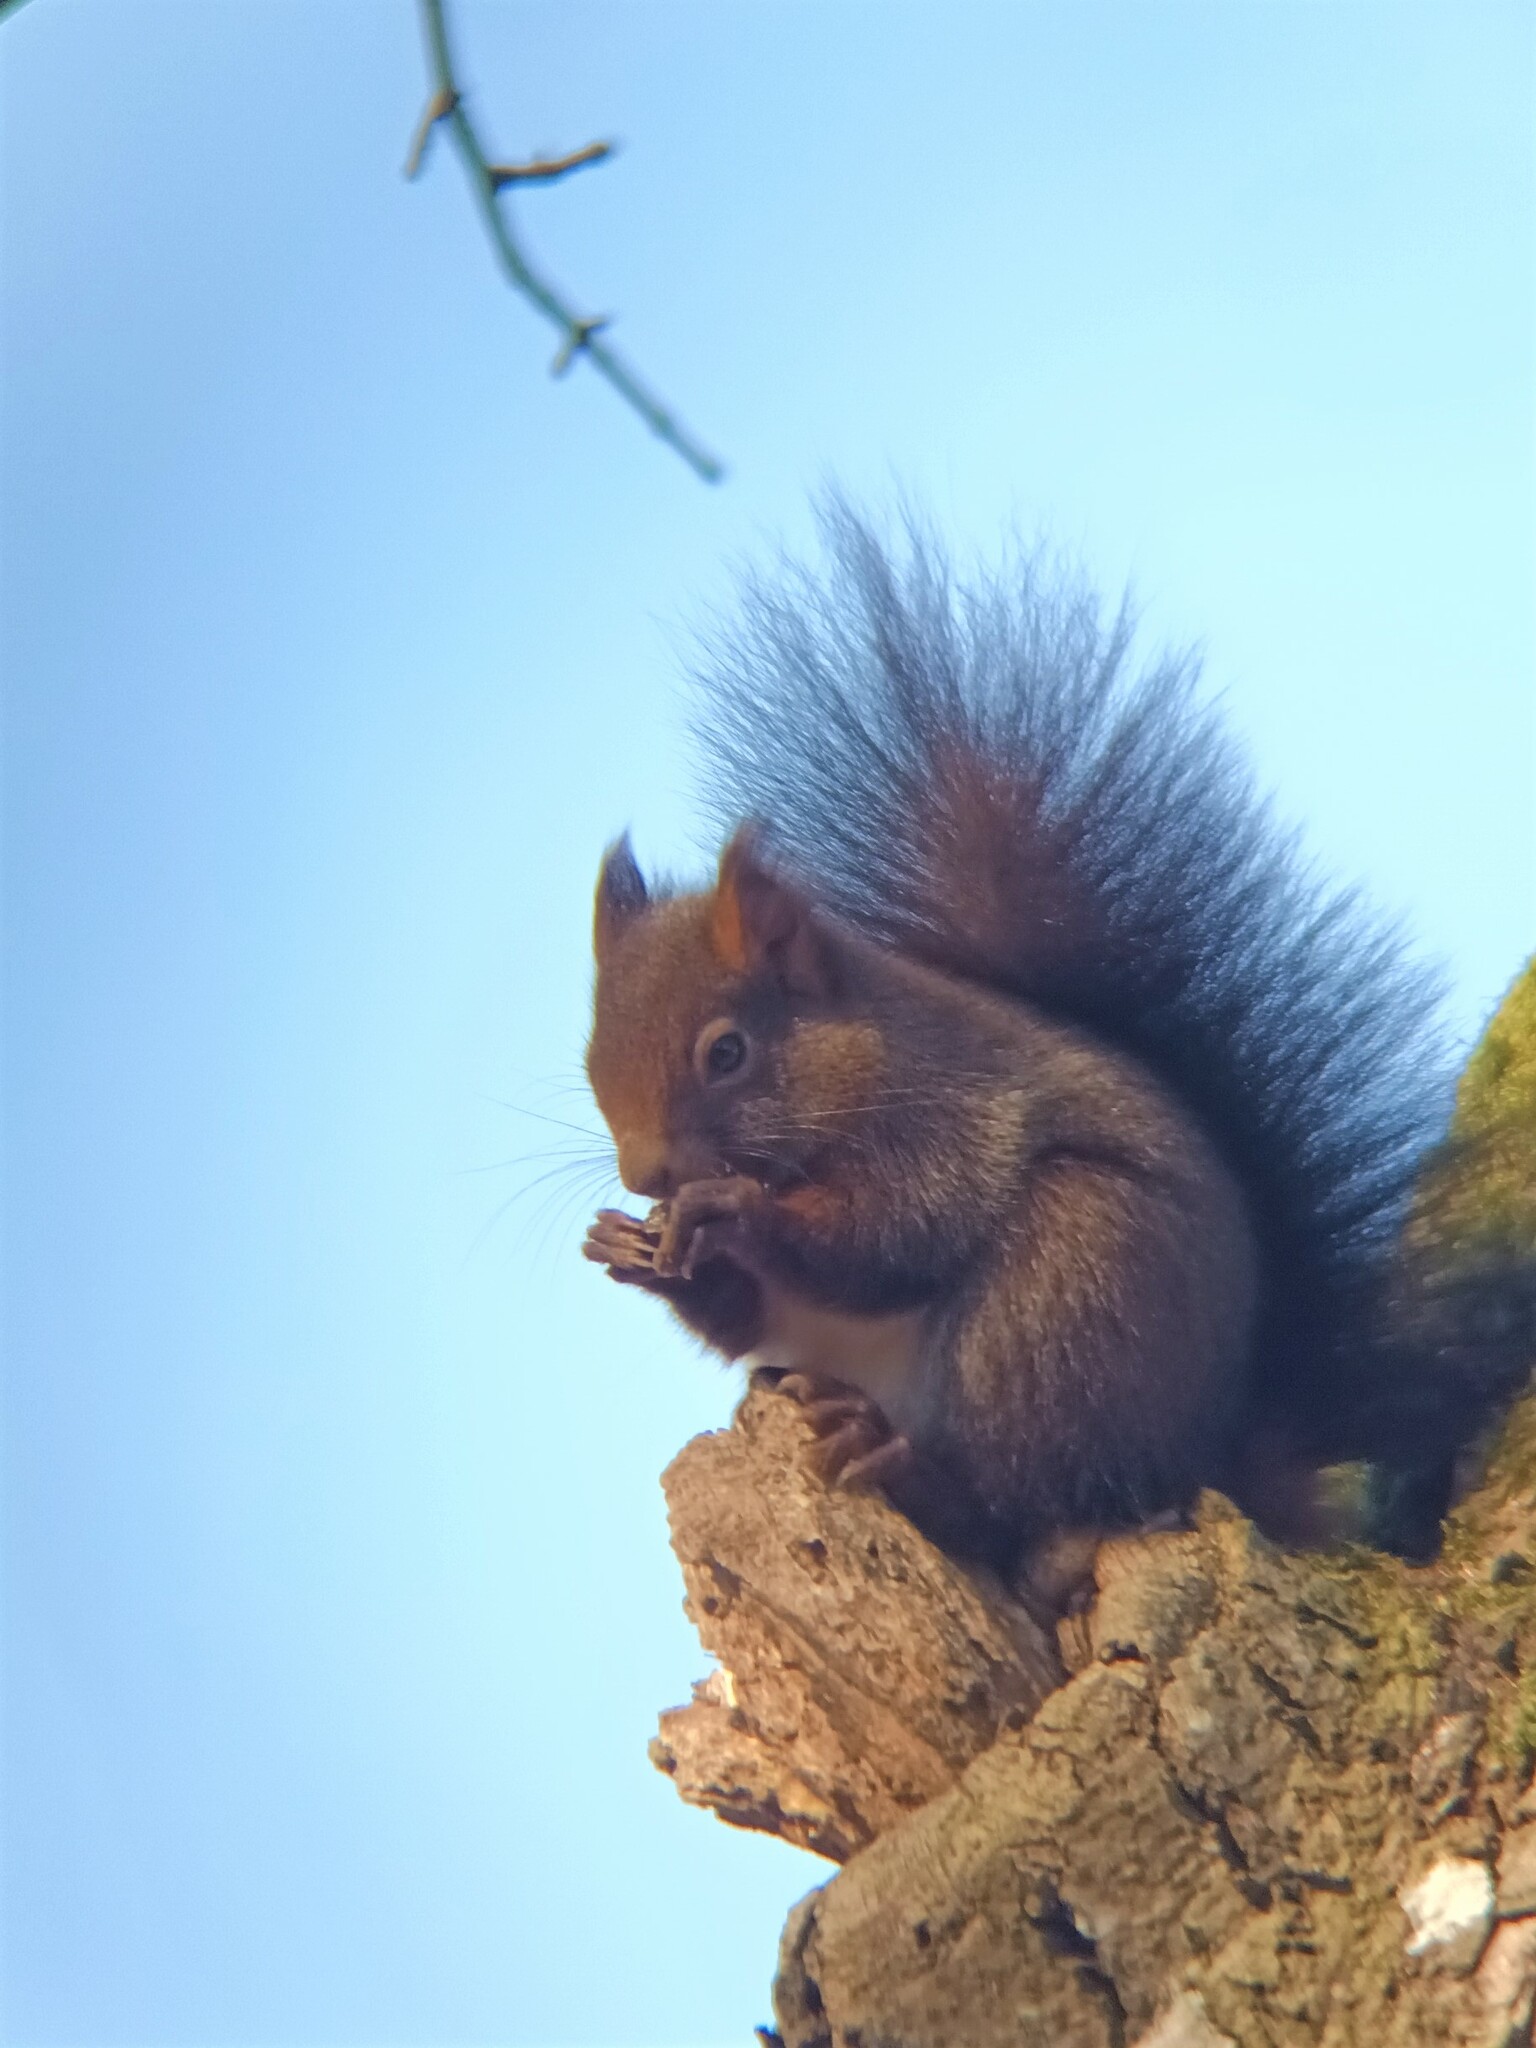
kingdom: Animalia
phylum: Chordata
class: Mammalia
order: Rodentia
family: Sciuridae
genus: Sciurus
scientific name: Sciurus vulgaris
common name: Eurasian red squirrel
